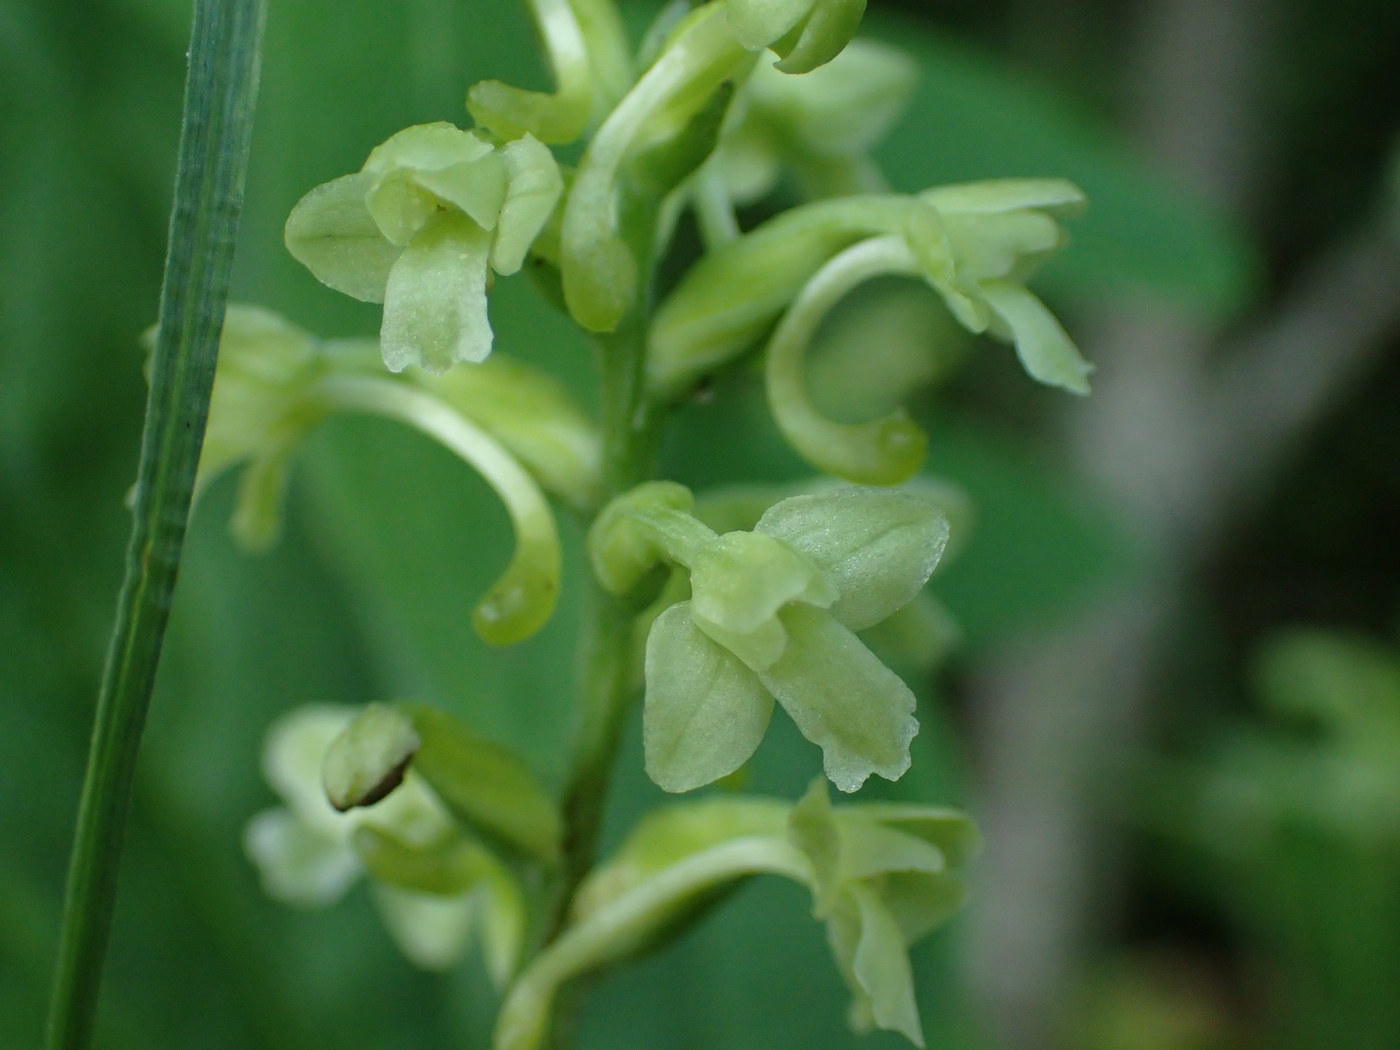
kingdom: Plantae
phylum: Tracheophyta
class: Liliopsida
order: Asparagales
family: Orchidaceae
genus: Platanthera
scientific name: Platanthera clavellata
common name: Club-spur orchid
